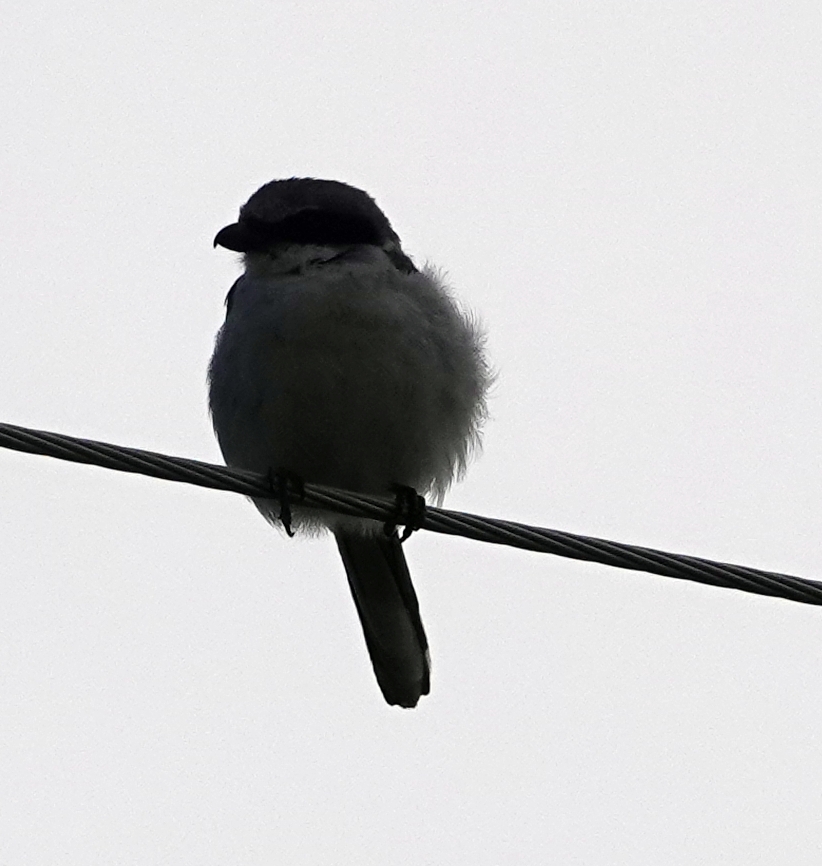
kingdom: Animalia
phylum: Chordata
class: Aves
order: Passeriformes
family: Laniidae
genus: Lanius
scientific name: Lanius ludovicianus
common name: Loggerhead shrike
